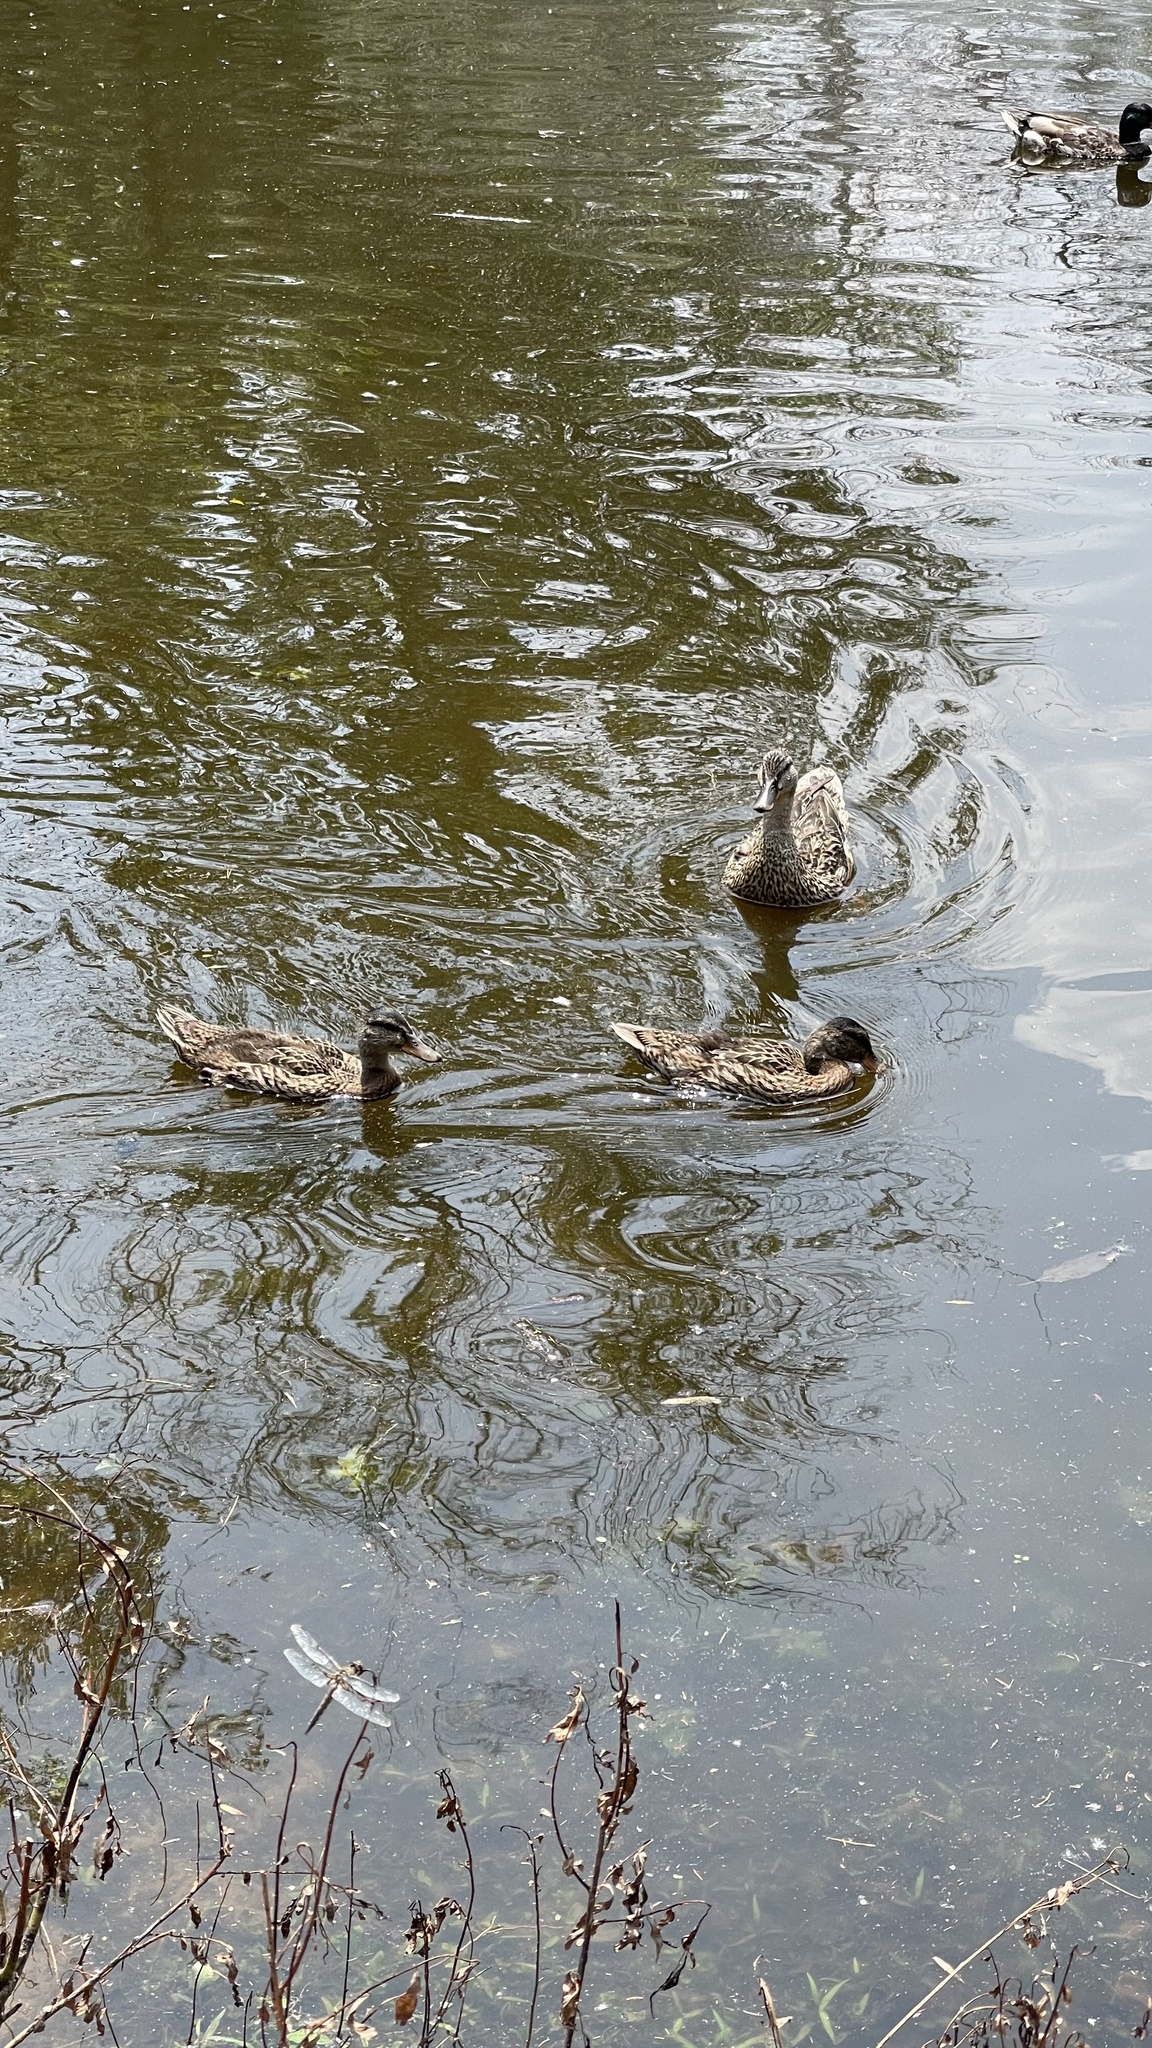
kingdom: Animalia
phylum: Chordata
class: Aves
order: Anseriformes
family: Anatidae
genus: Anas
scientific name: Anas platyrhynchos
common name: Mallard
